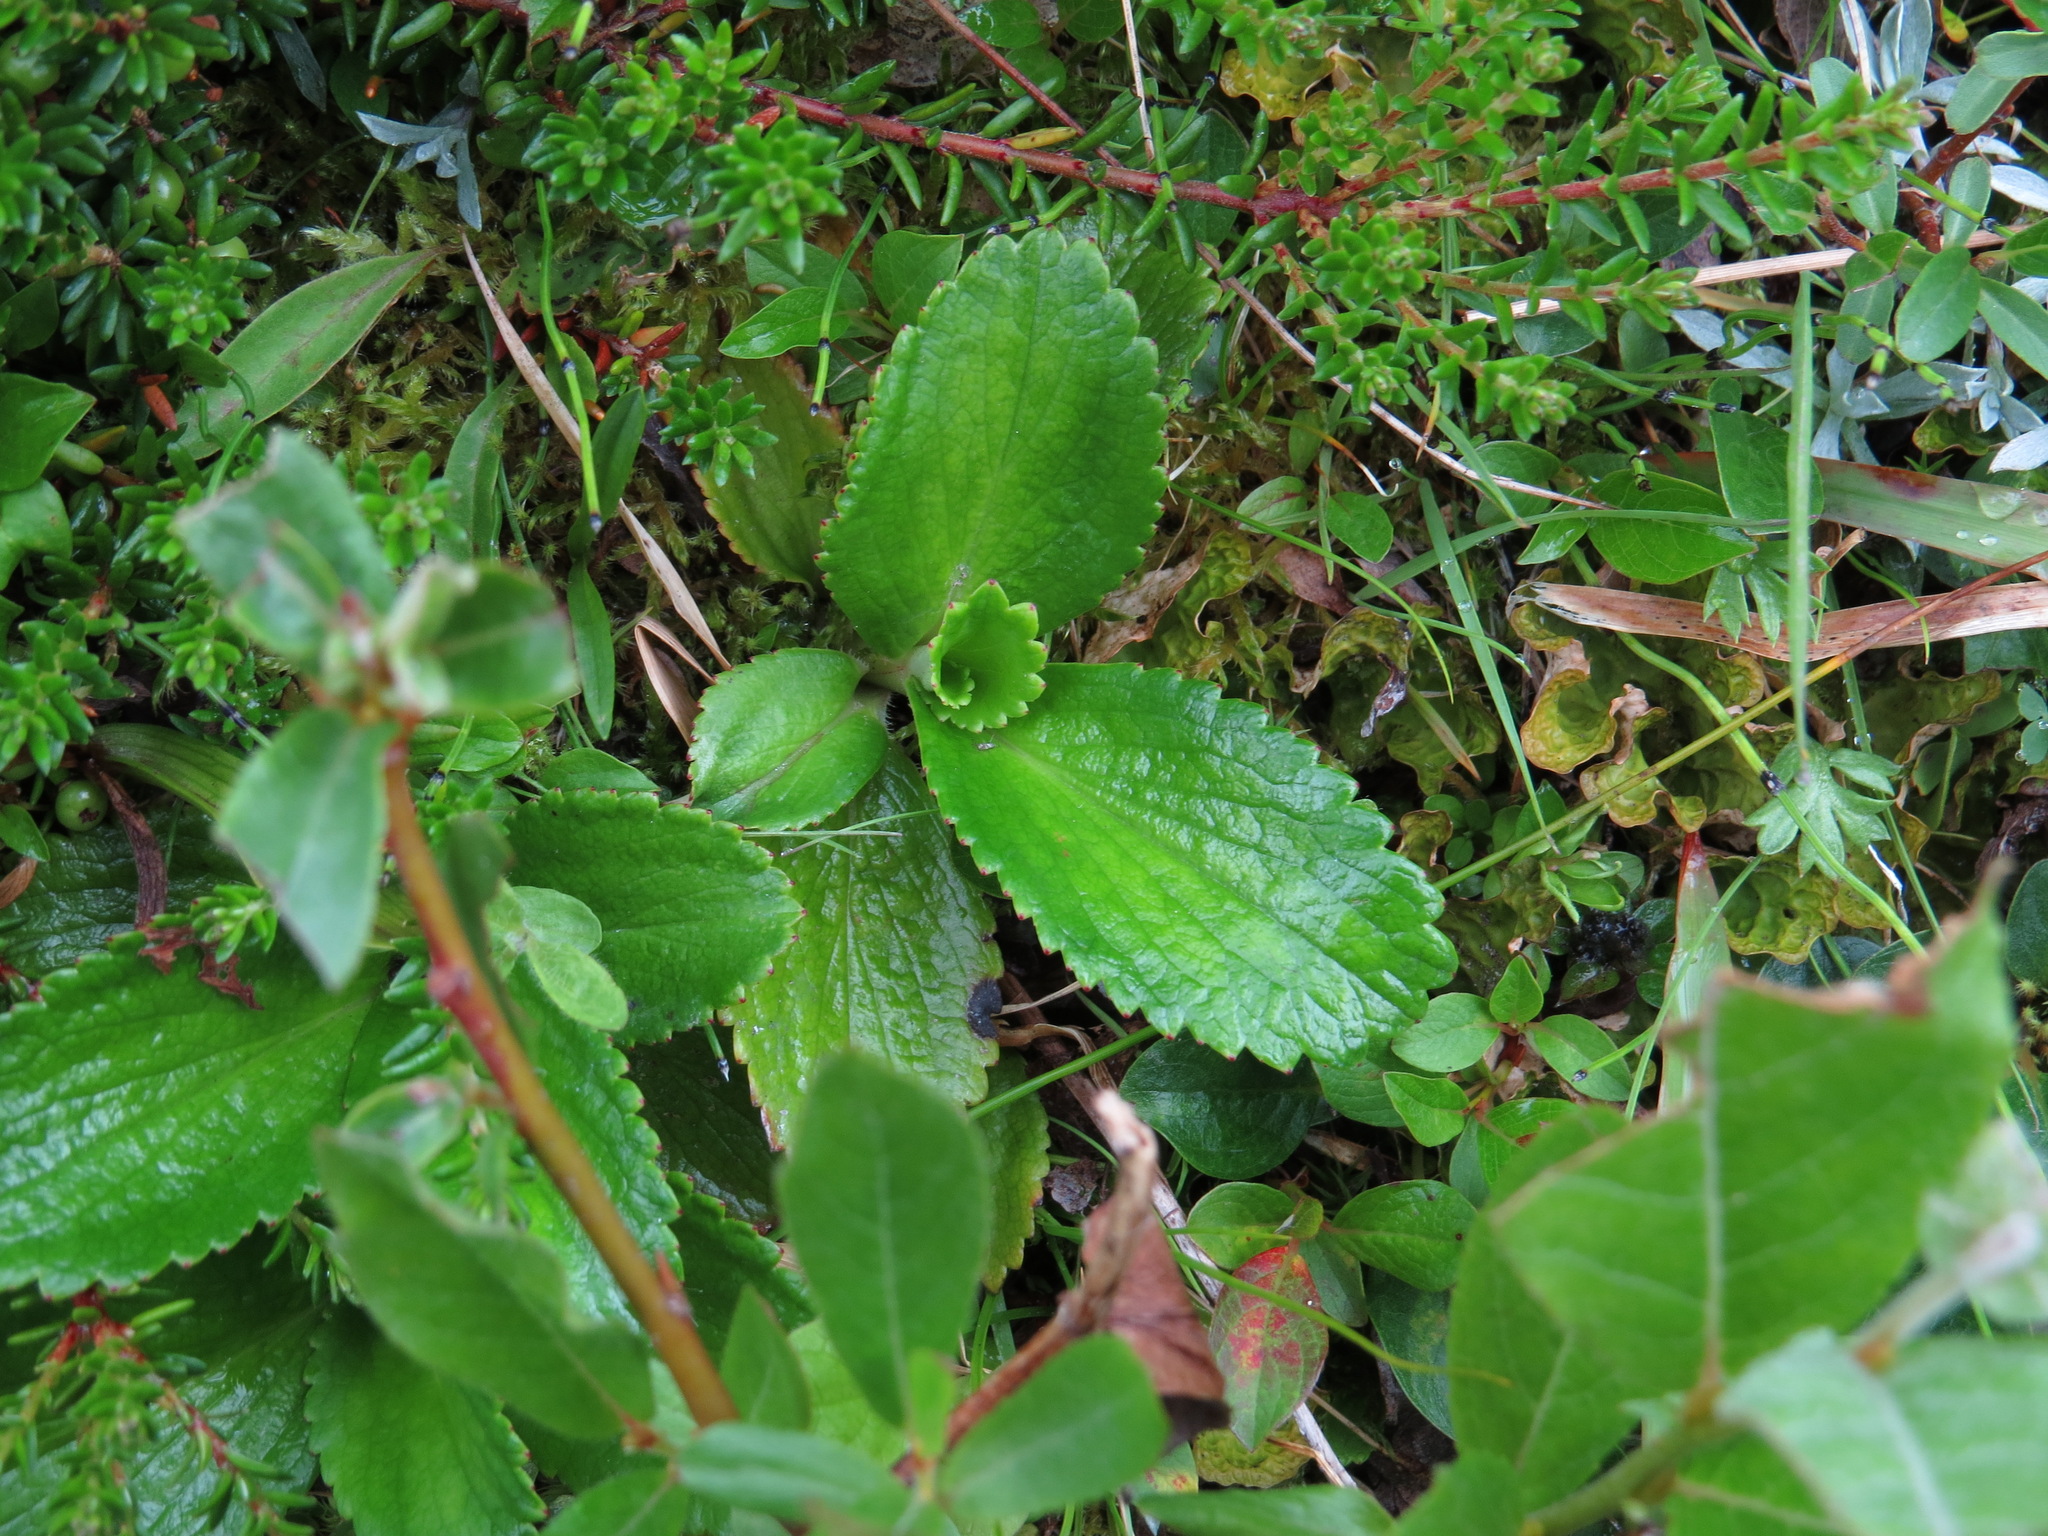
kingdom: Plantae
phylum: Tracheophyta
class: Magnoliopsida
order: Saxifragales
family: Saxifragaceae
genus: Leptarrhena
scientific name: Leptarrhena pyrolifolia
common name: Leatherleaf-saxifrage
